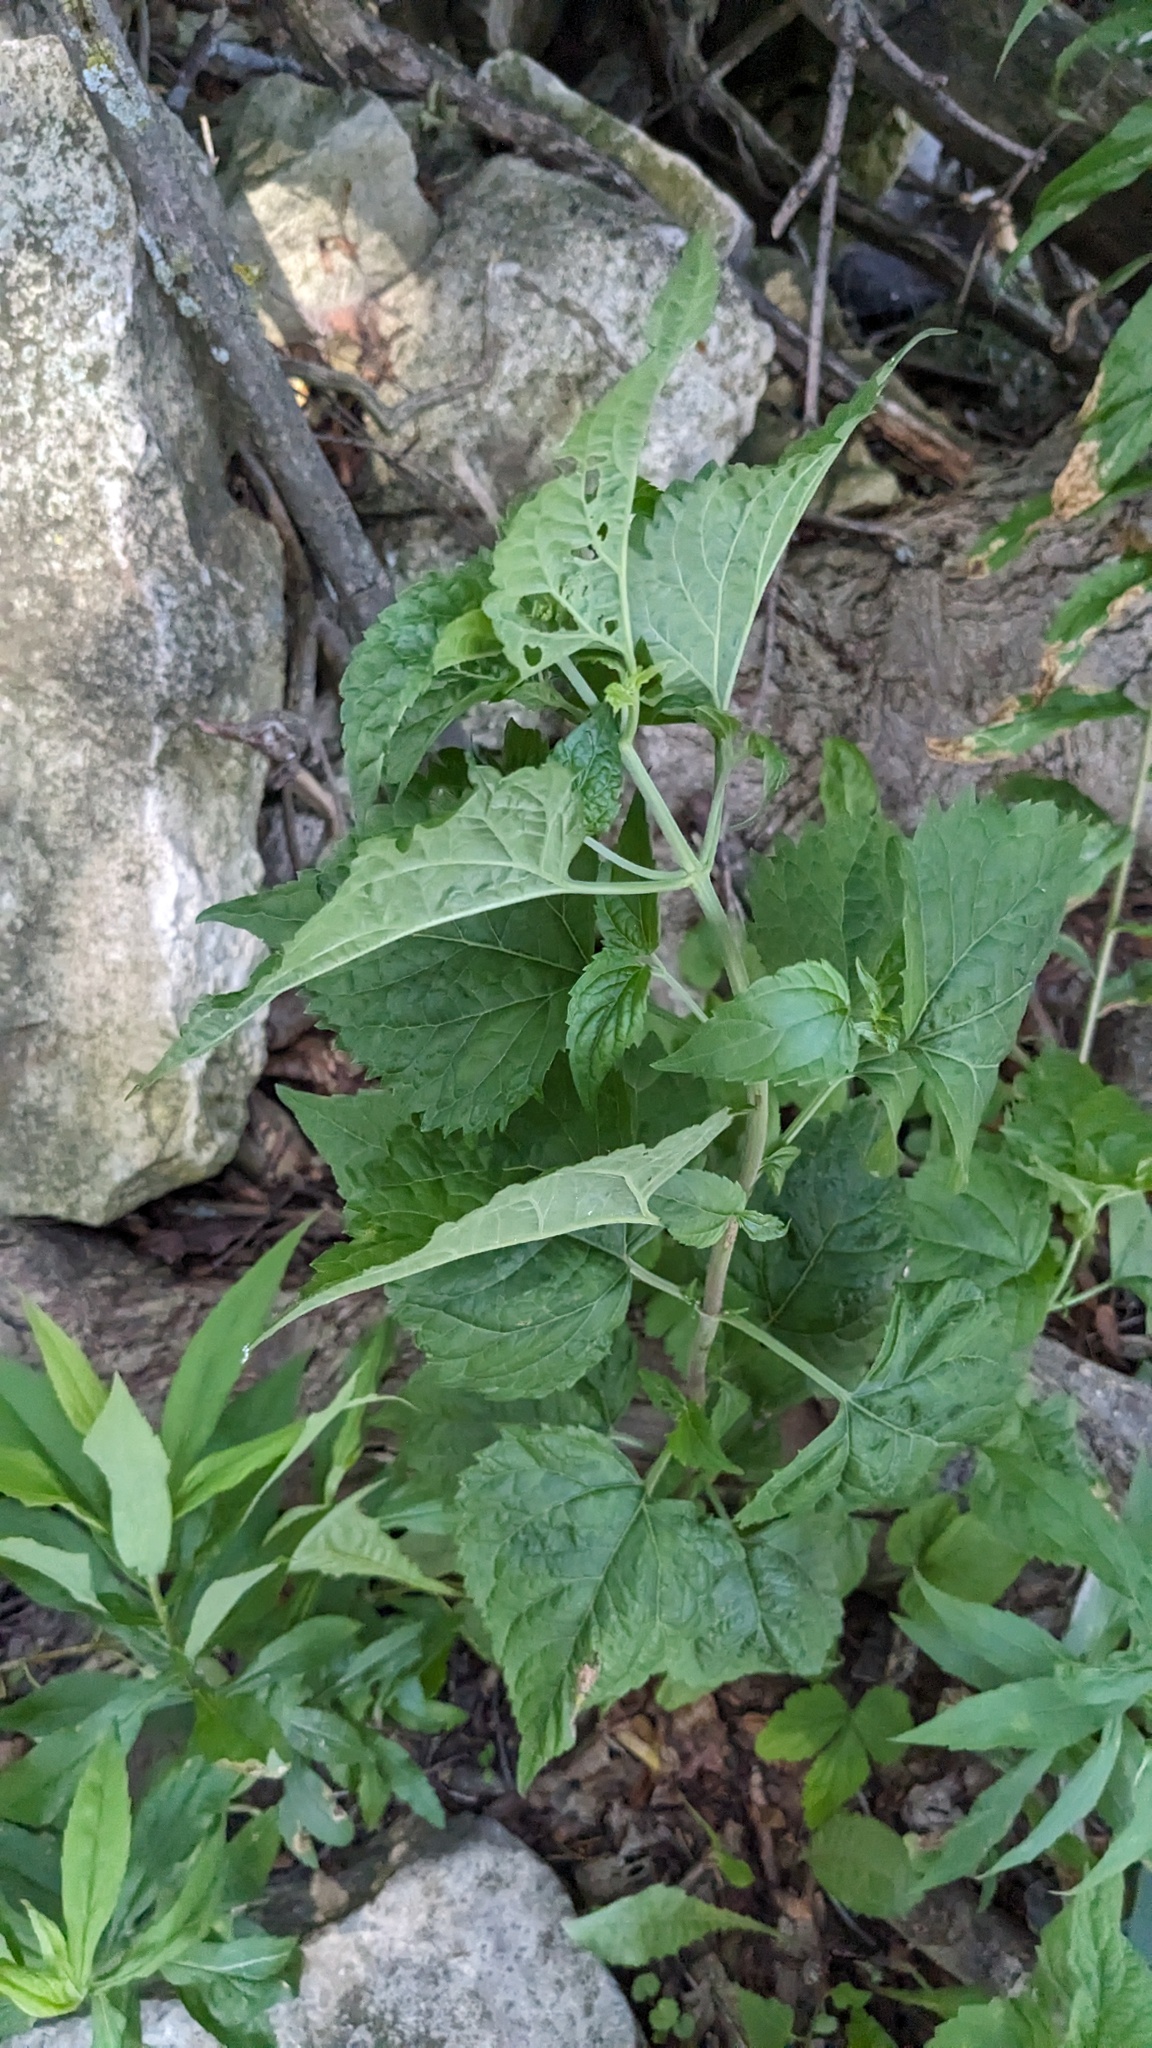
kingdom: Plantae
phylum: Tracheophyta
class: Magnoliopsida
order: Asterales
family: Asteraceae
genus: Ageratina
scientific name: Ageratina altissima
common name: White snakeroot
